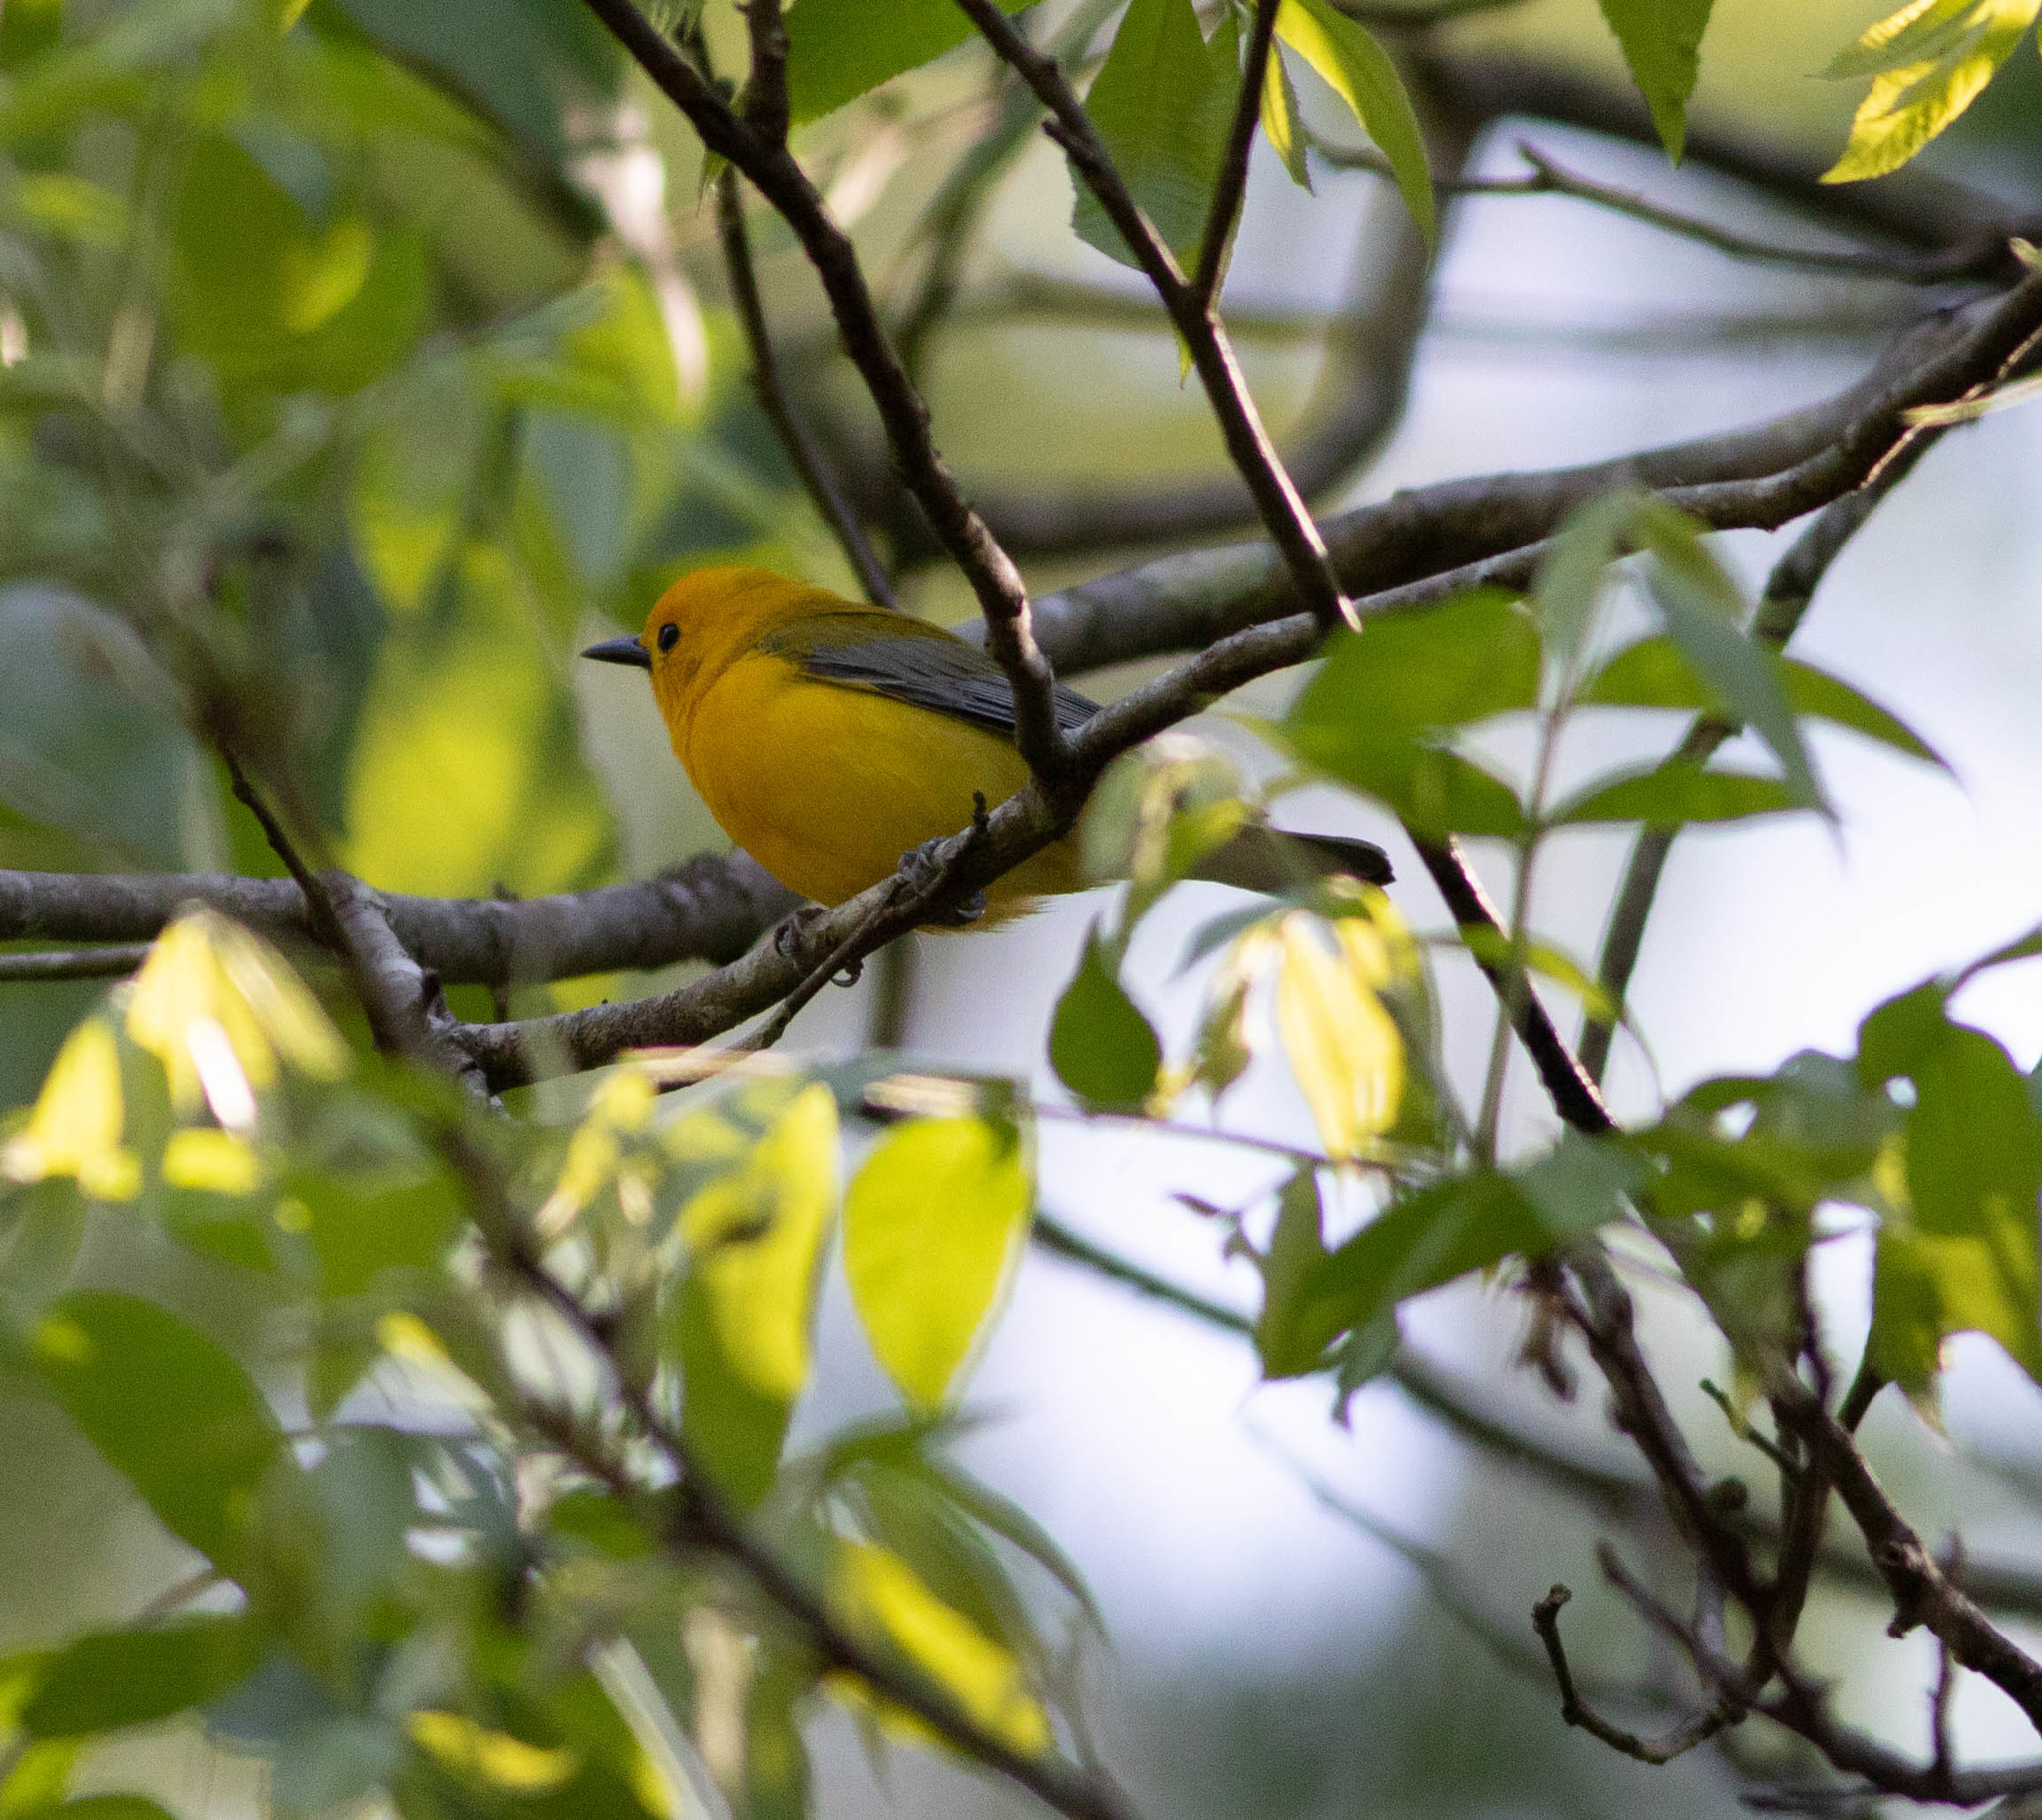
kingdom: Animalia
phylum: Chordata
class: Aves
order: Passeriformes
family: Parulidae
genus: Protonotaria
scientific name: Protonotaria citrea
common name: Prothonotary warbler
